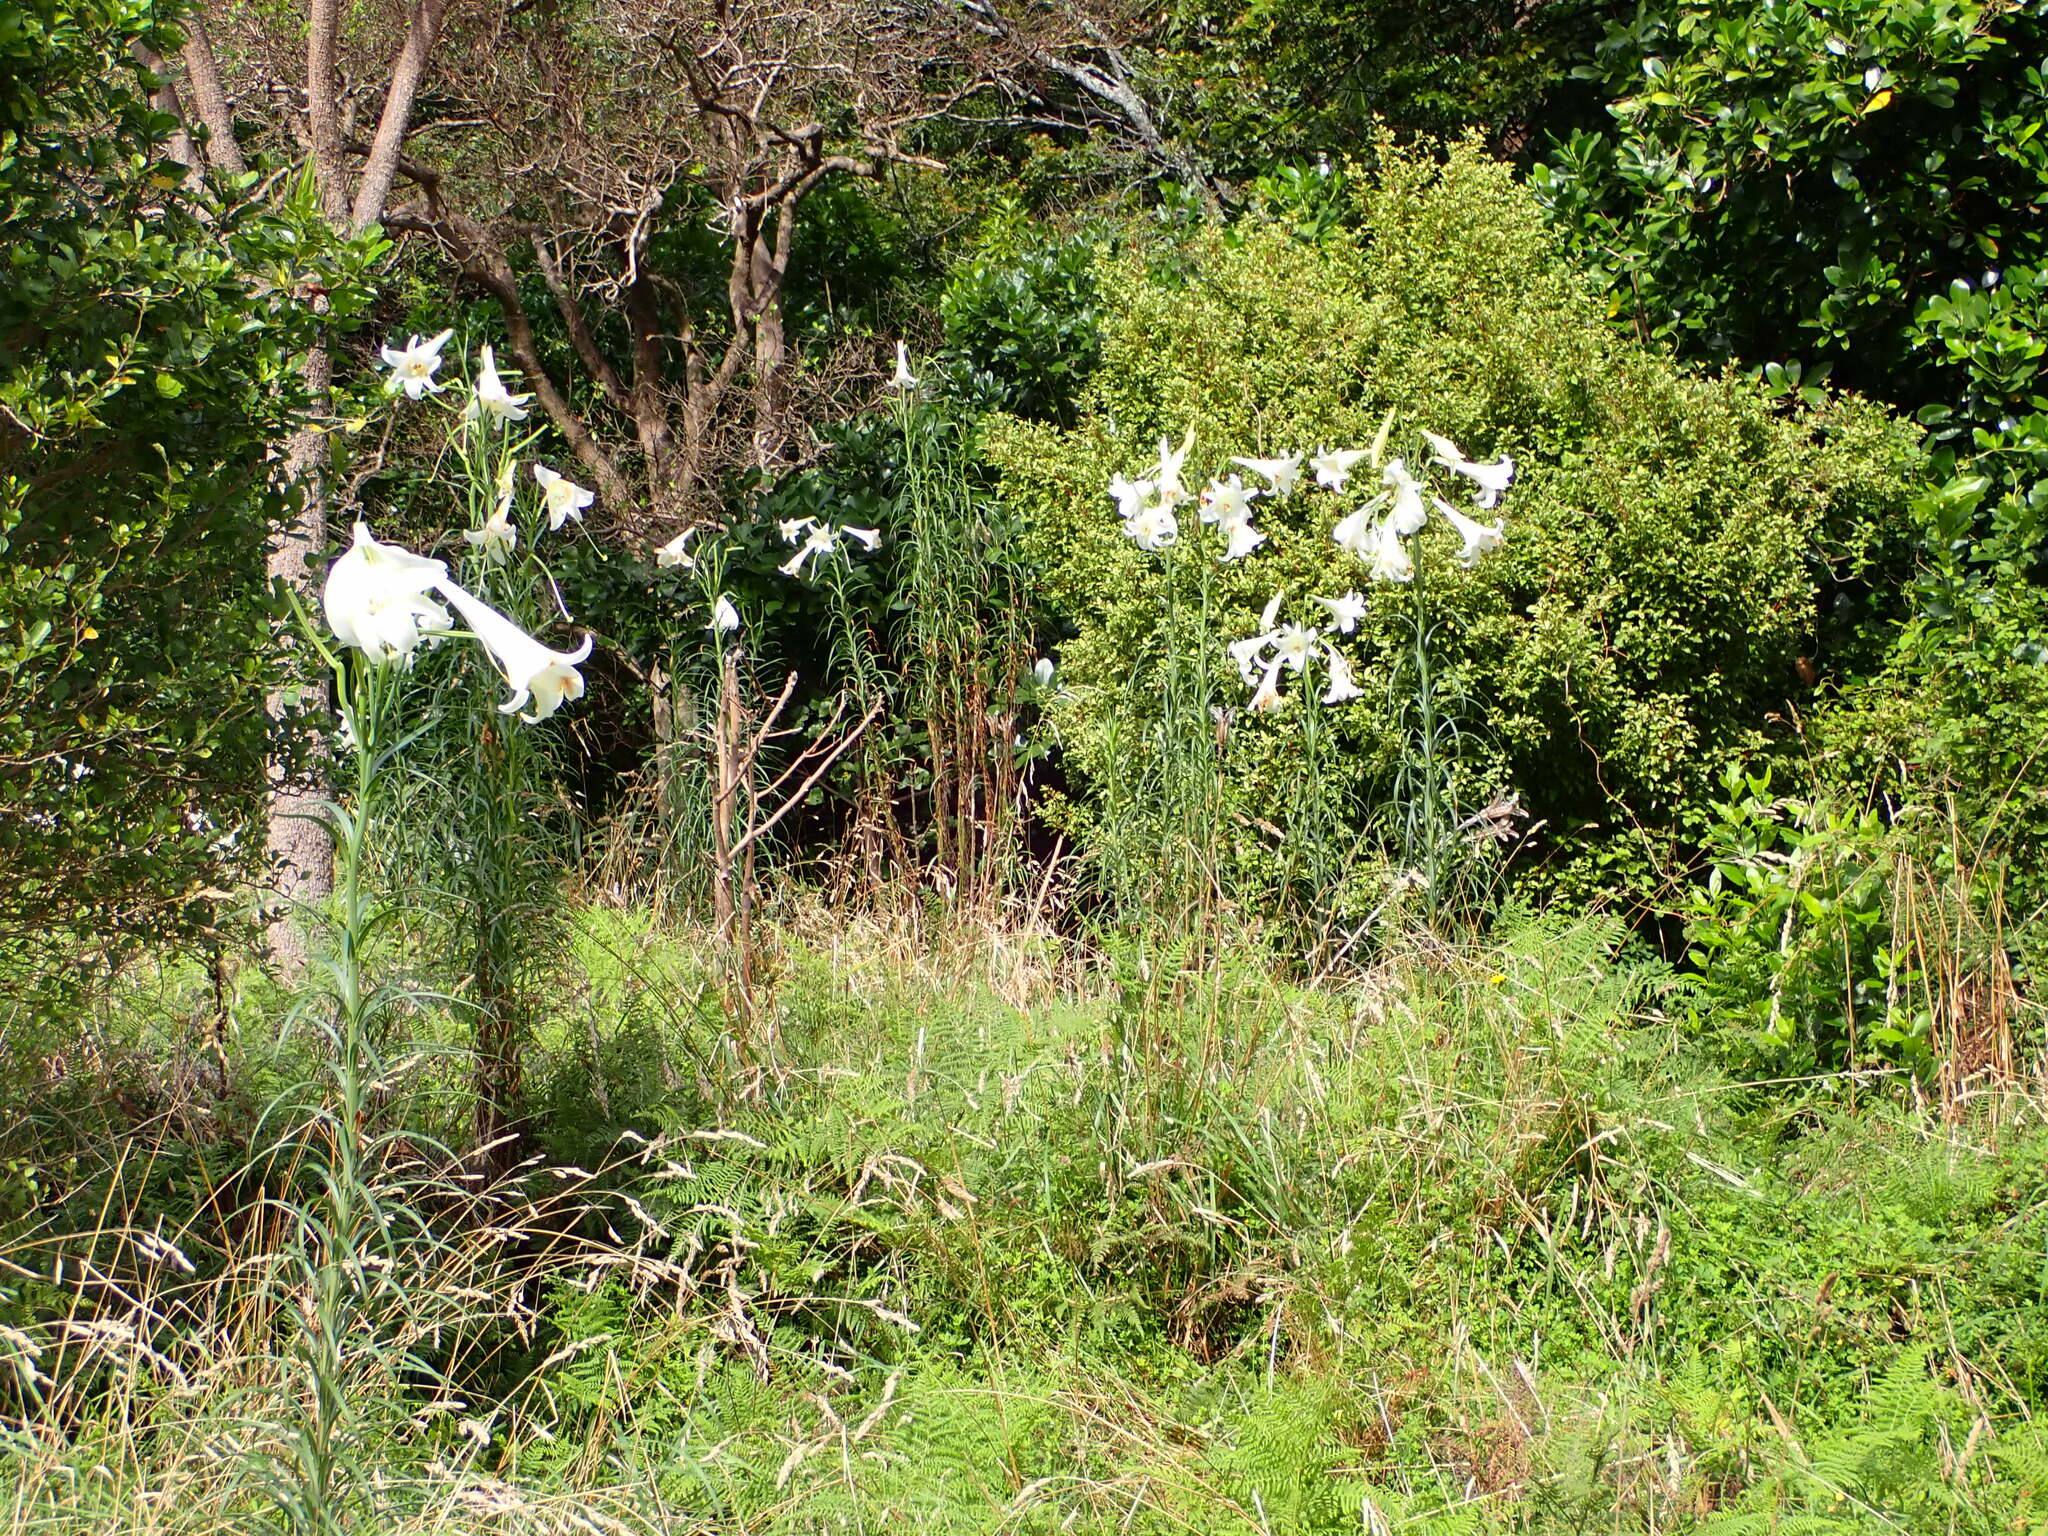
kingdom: Plantae
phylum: Tracheophyta
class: Liliopsida
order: Liliales
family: Liliaceae
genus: Lilium
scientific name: Lilium formosanum
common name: Formosa lily
